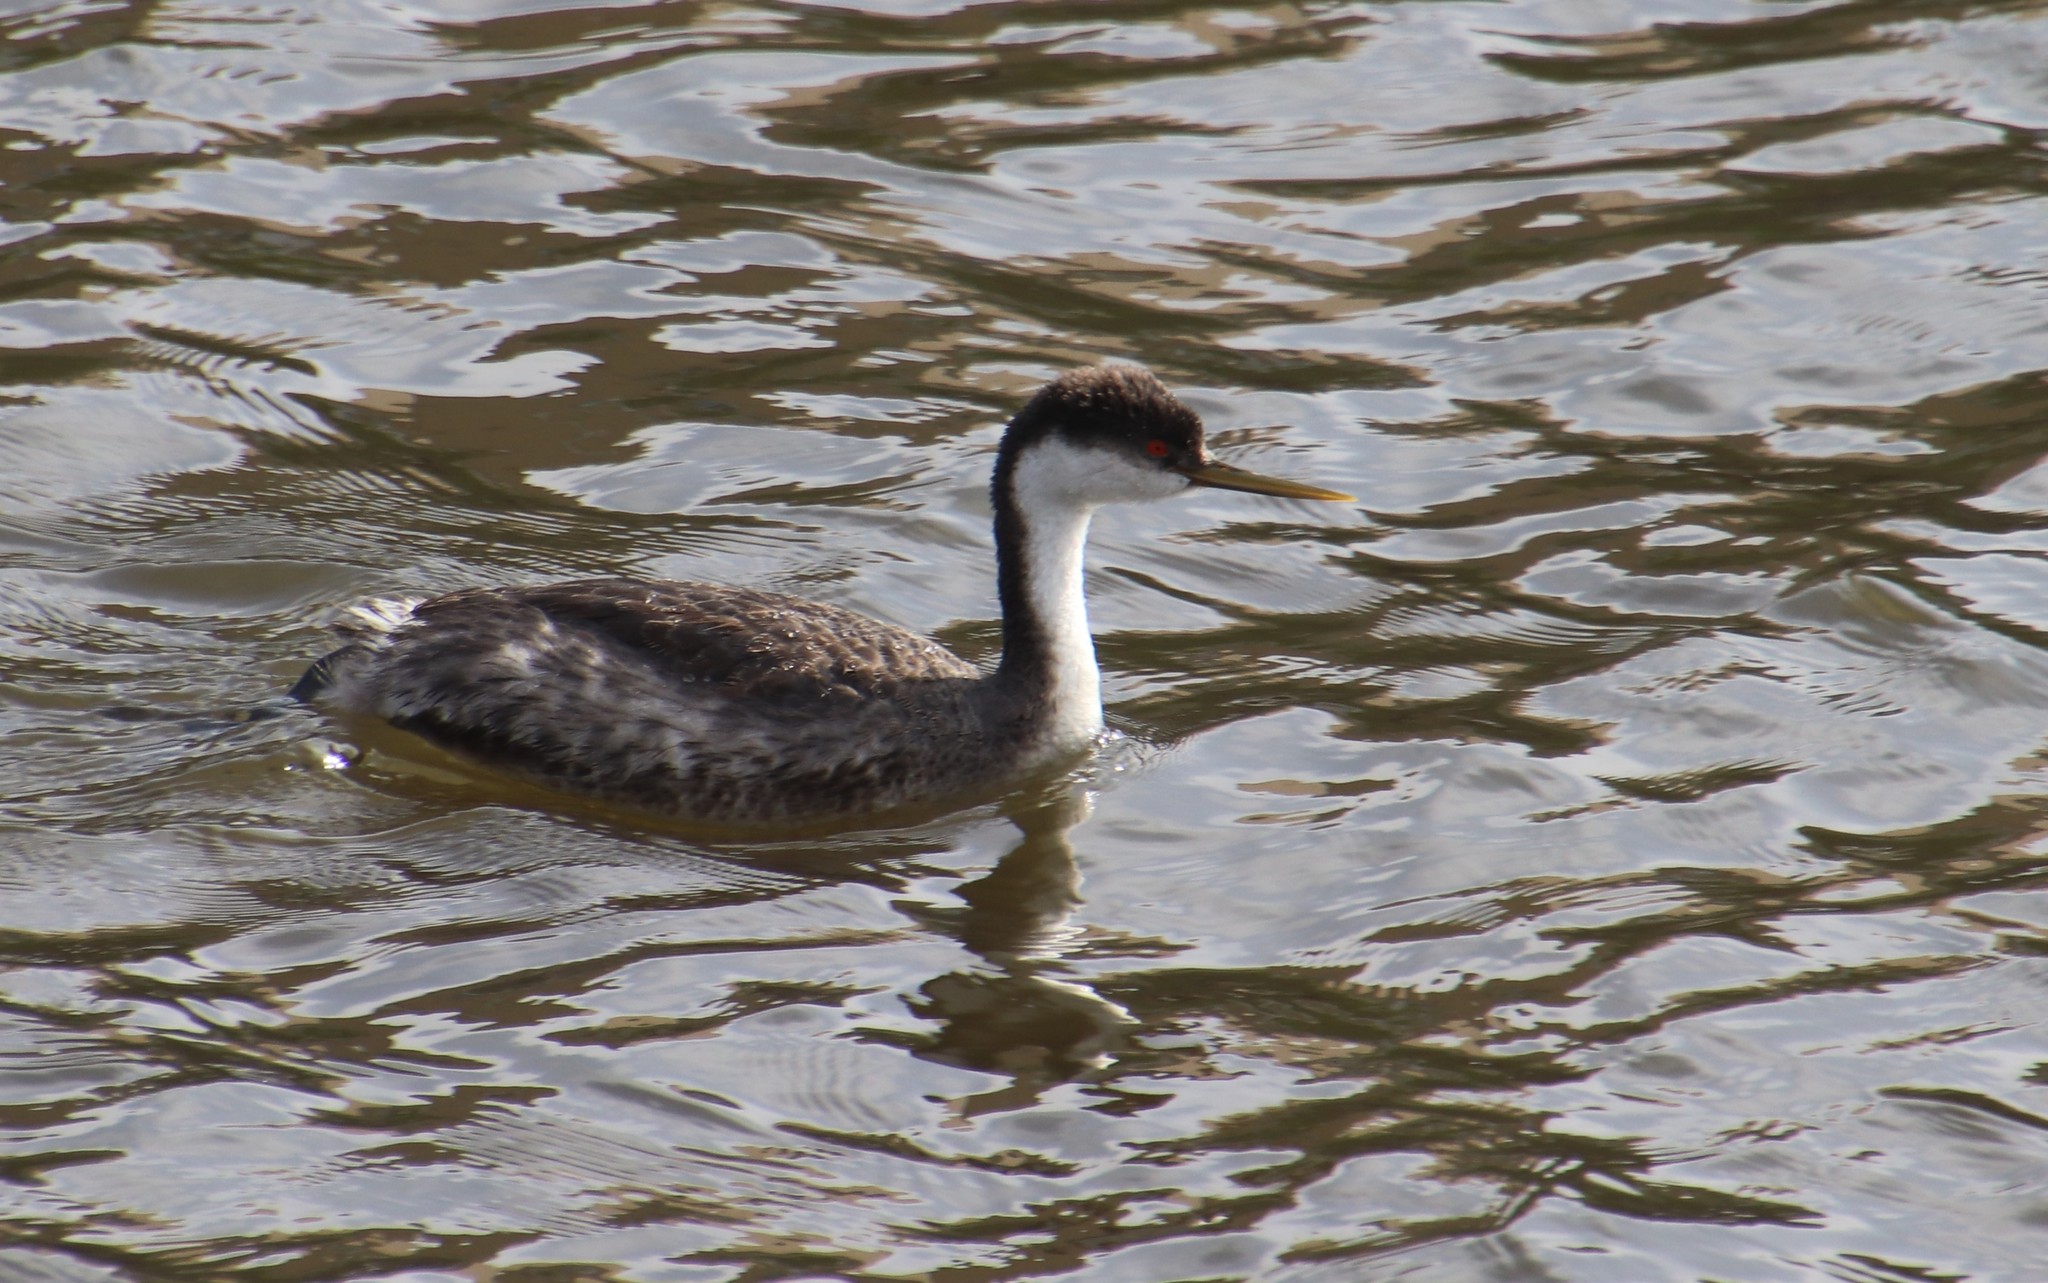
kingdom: Animalia
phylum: Chordata
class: Aves
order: Podicipediformes
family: Podicipedidae
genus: Aechmophorus
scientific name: Aechmophorus occidentalis
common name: Western grebe
